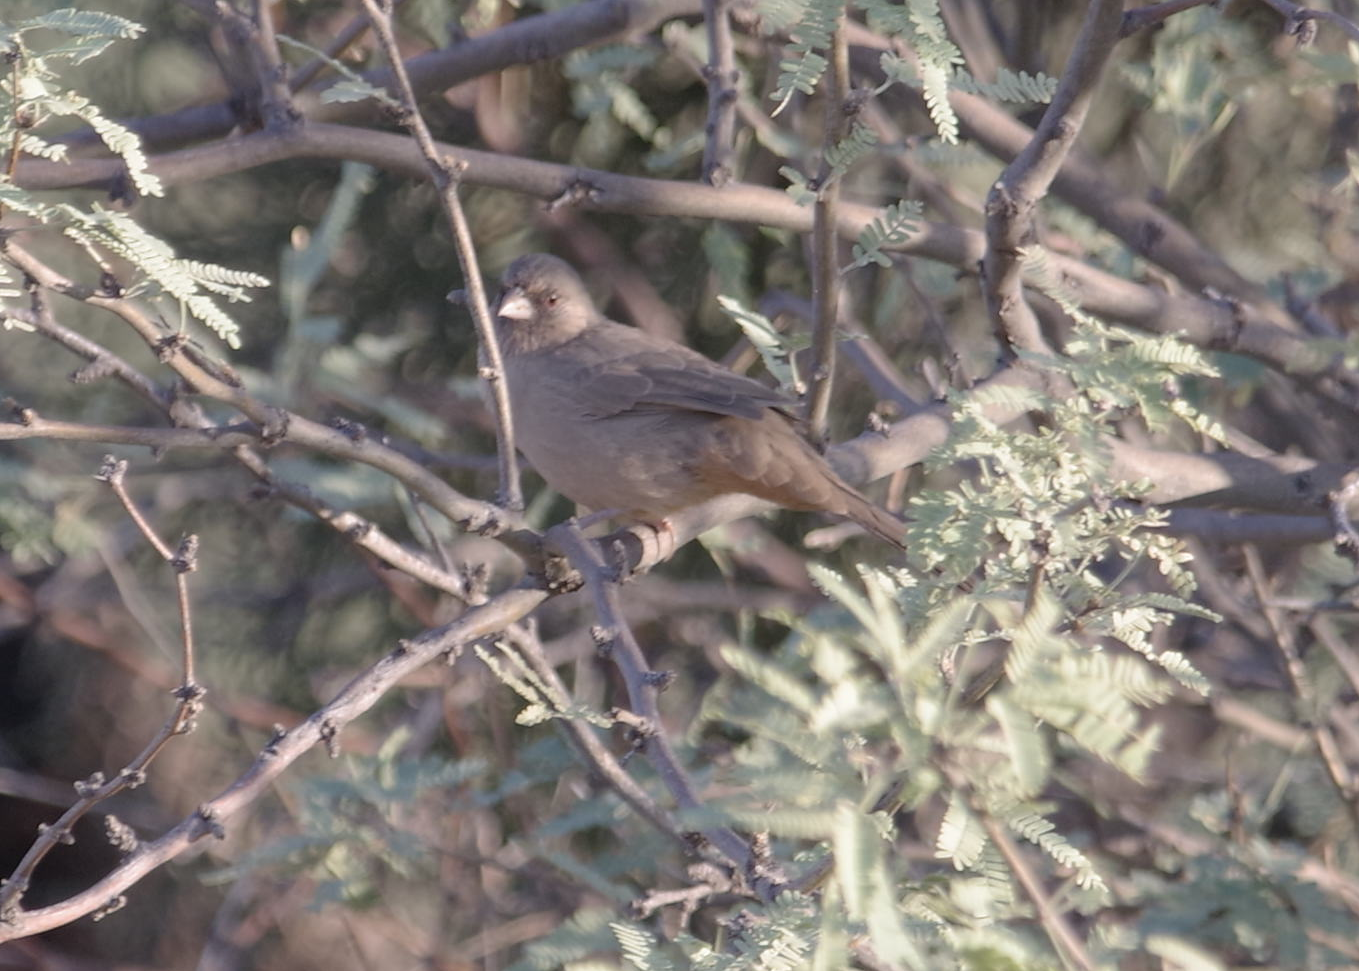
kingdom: Animalia
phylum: Chordata
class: Aves
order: Passeriformes
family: Passerellidae
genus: Melozone
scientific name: Melozone aberti
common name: Abert's towhee
